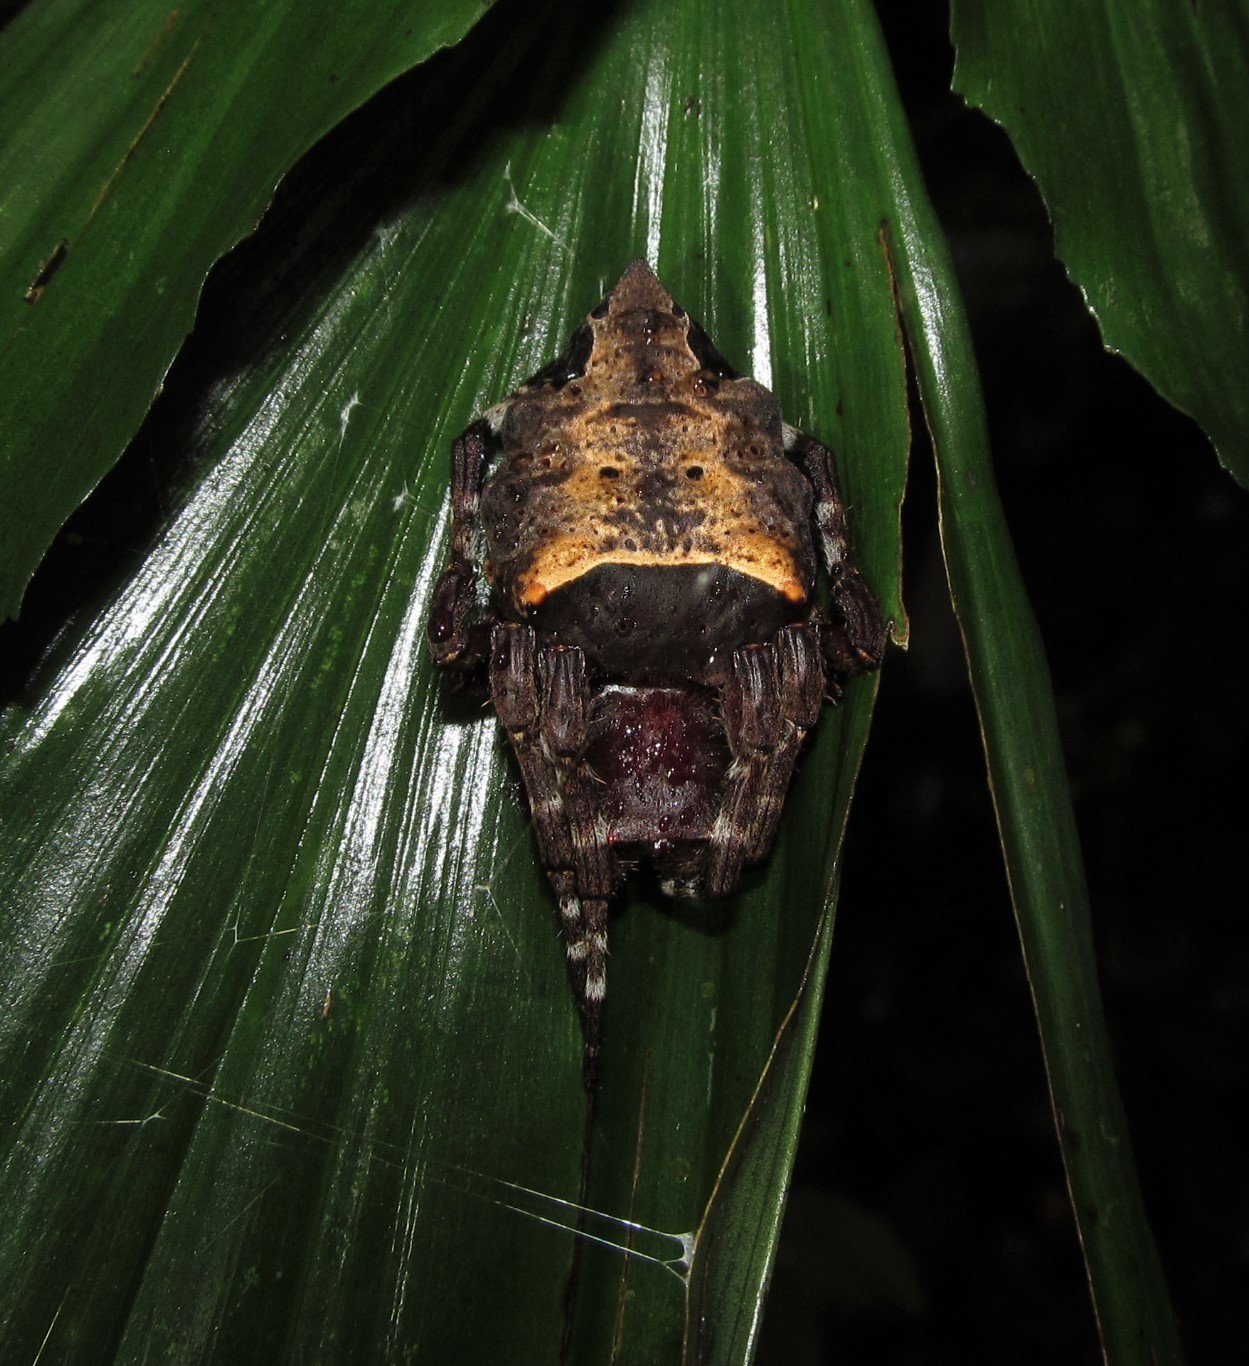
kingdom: Animalia
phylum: Arthropoda
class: Arachnida
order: Araneae
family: Araneidae
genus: Parawixia
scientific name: Parawixia dehaani
